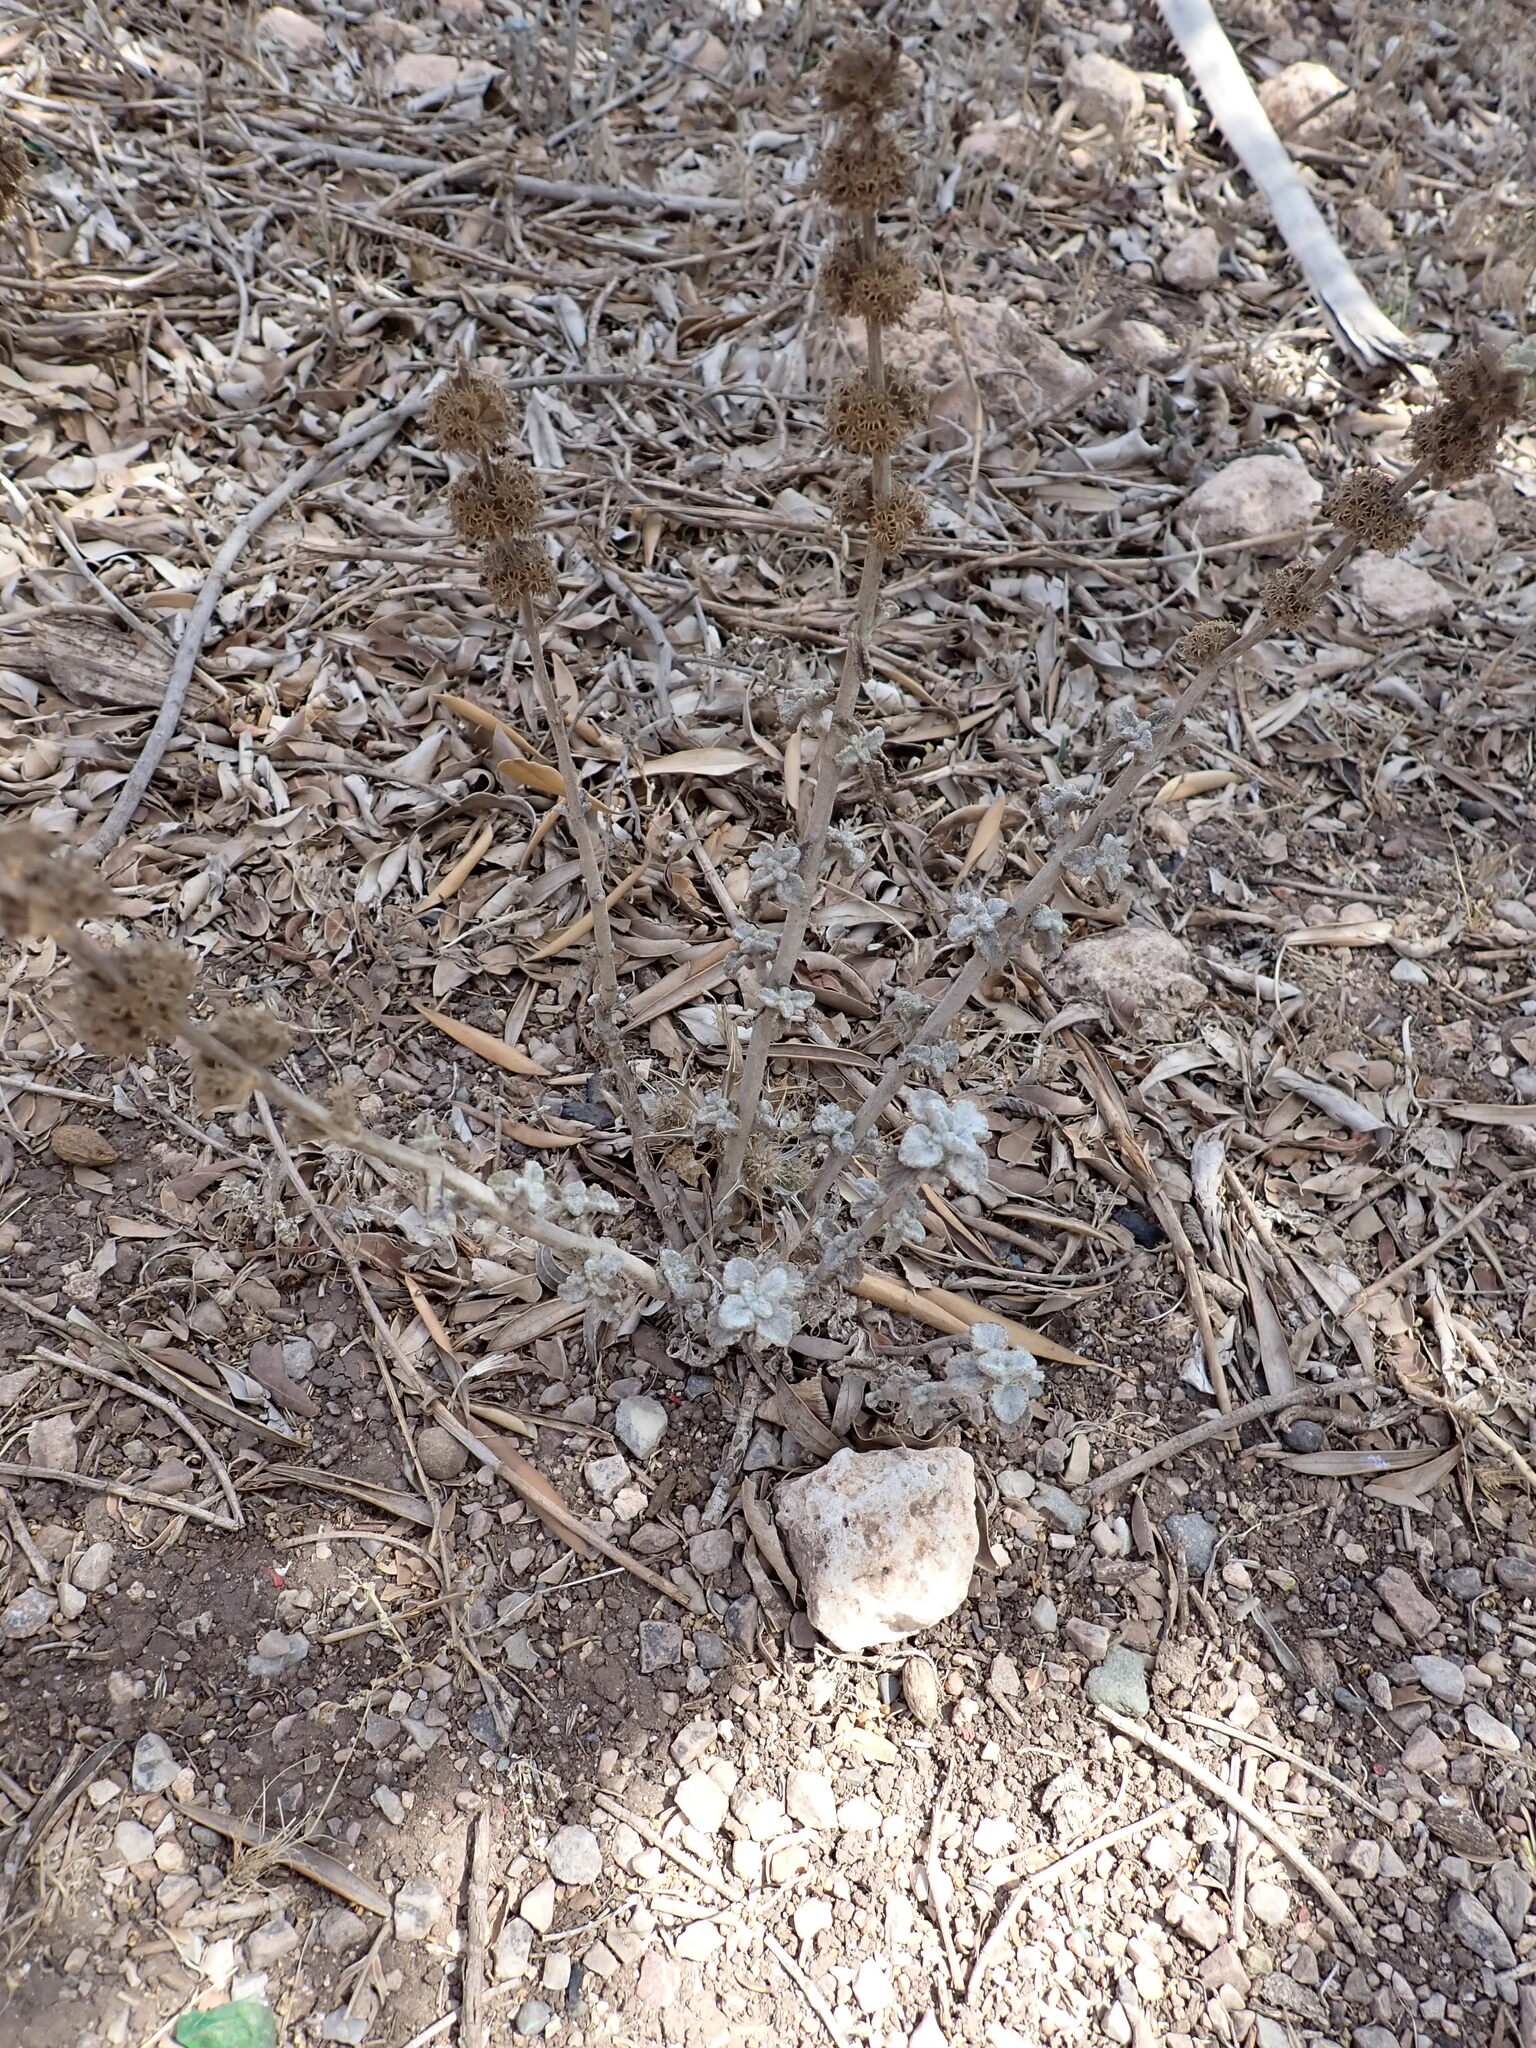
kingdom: Plantae
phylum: Tracheophyta
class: Magnoliopsida
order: Lamiales
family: Lamiaceae
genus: Marrubium
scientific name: Marrubium vulgare
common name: Horehound
